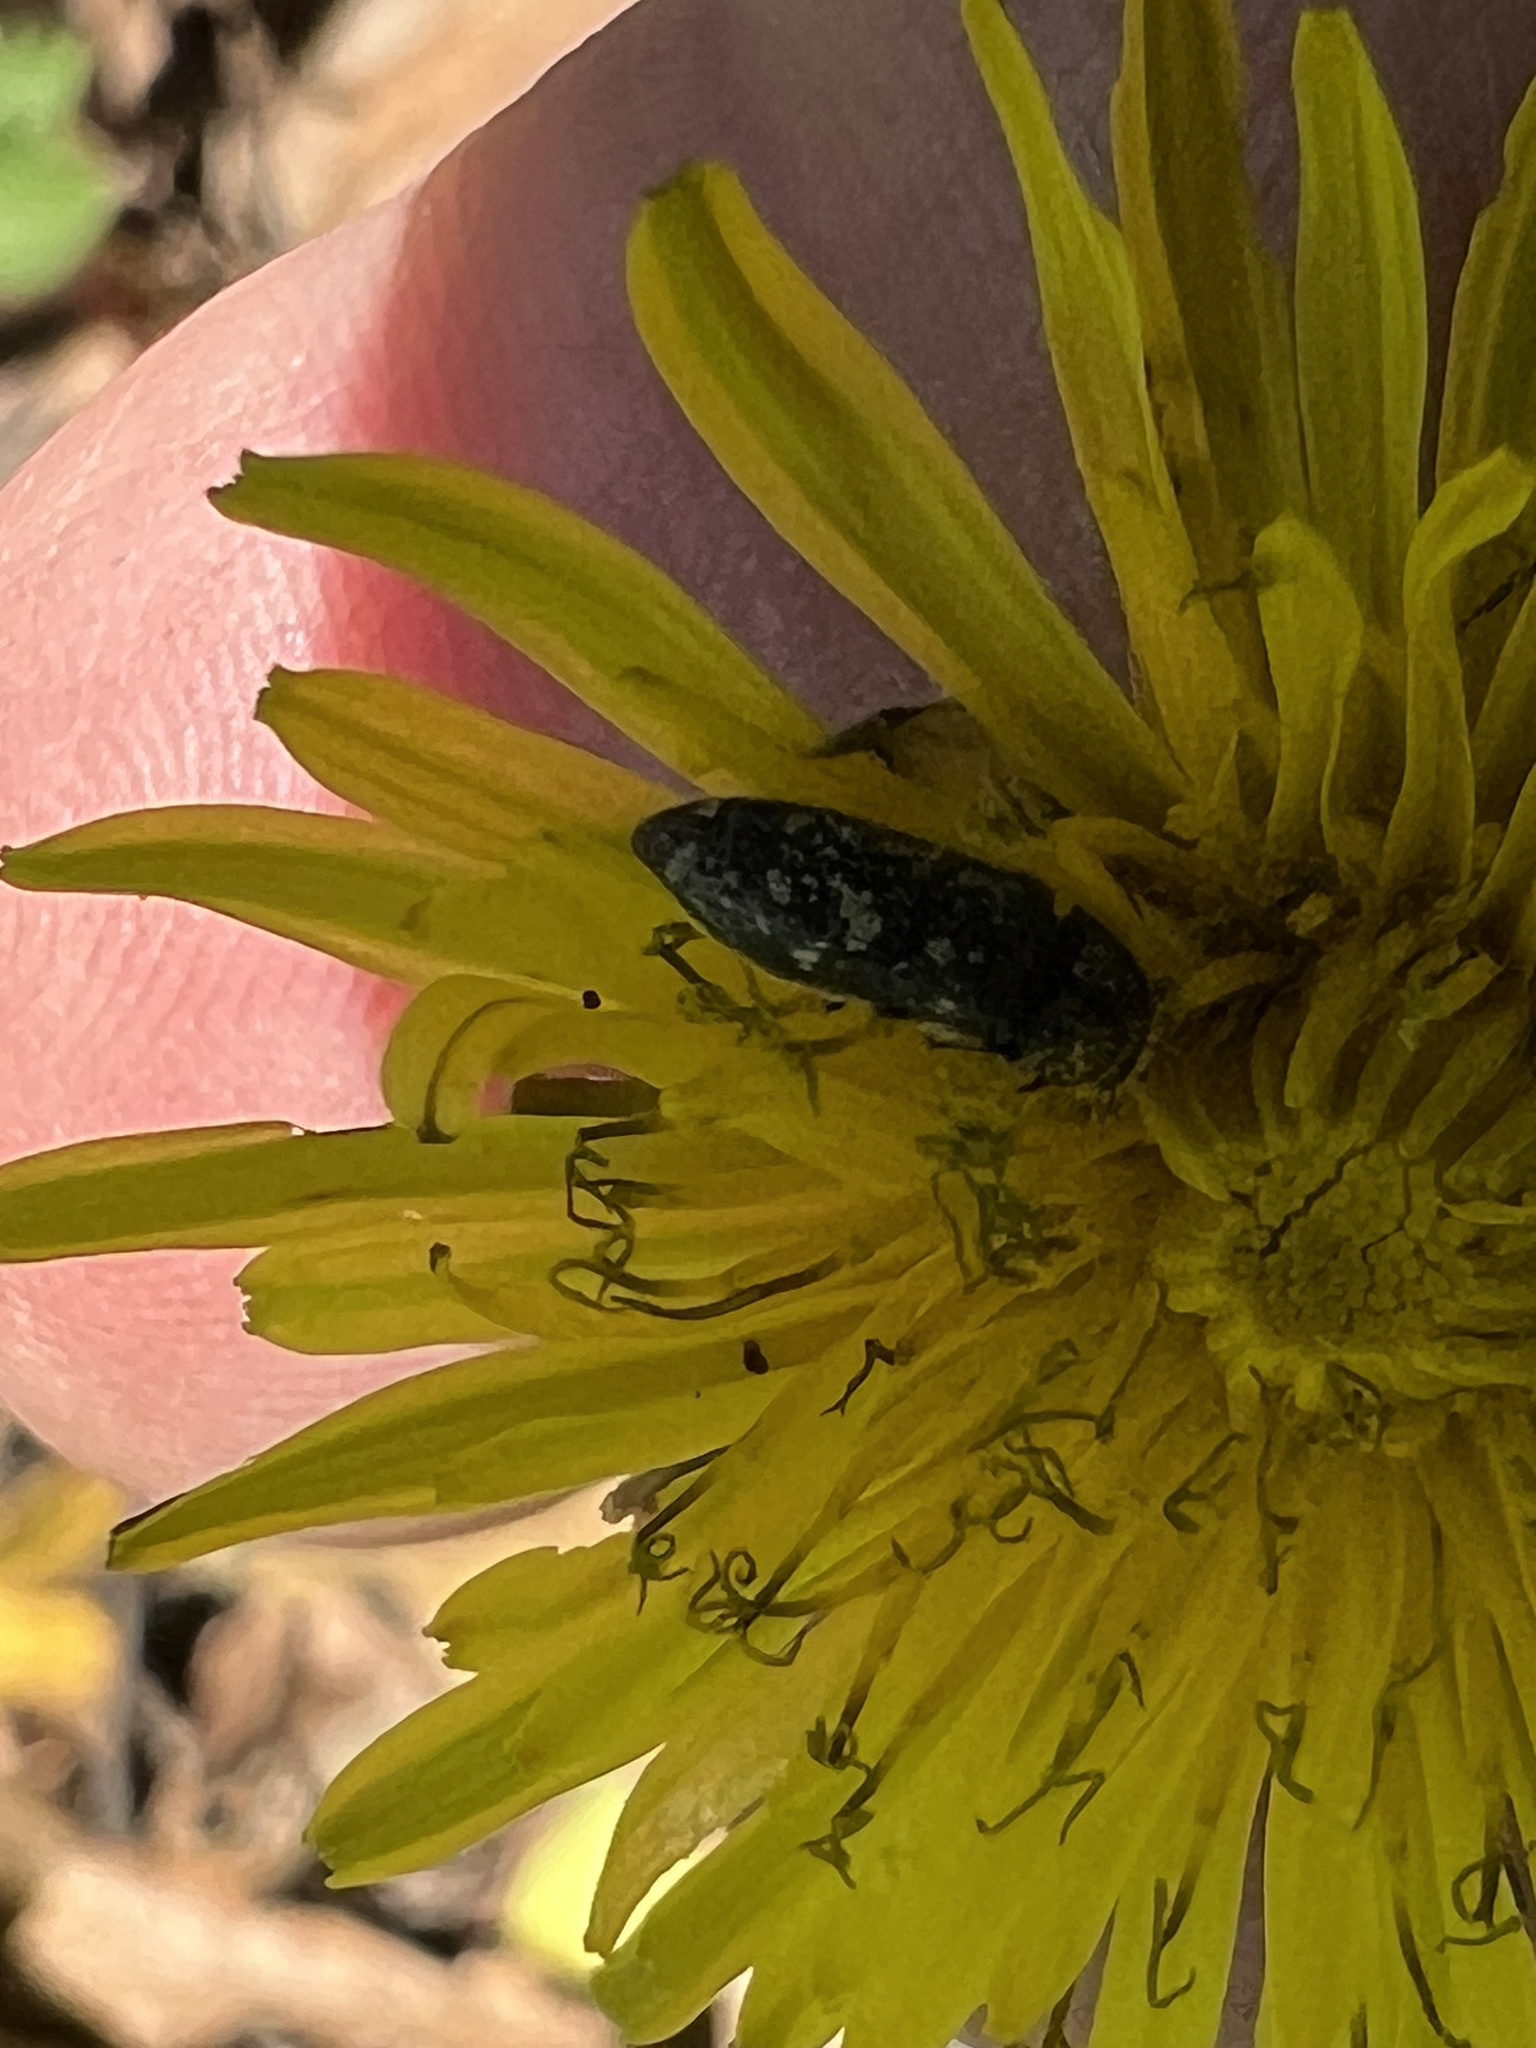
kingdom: Animalia
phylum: Arthropoda
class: Insecta
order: Coleoptera
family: Buprestidae
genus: Acmaeodera
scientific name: Acmaeodera tubulus
